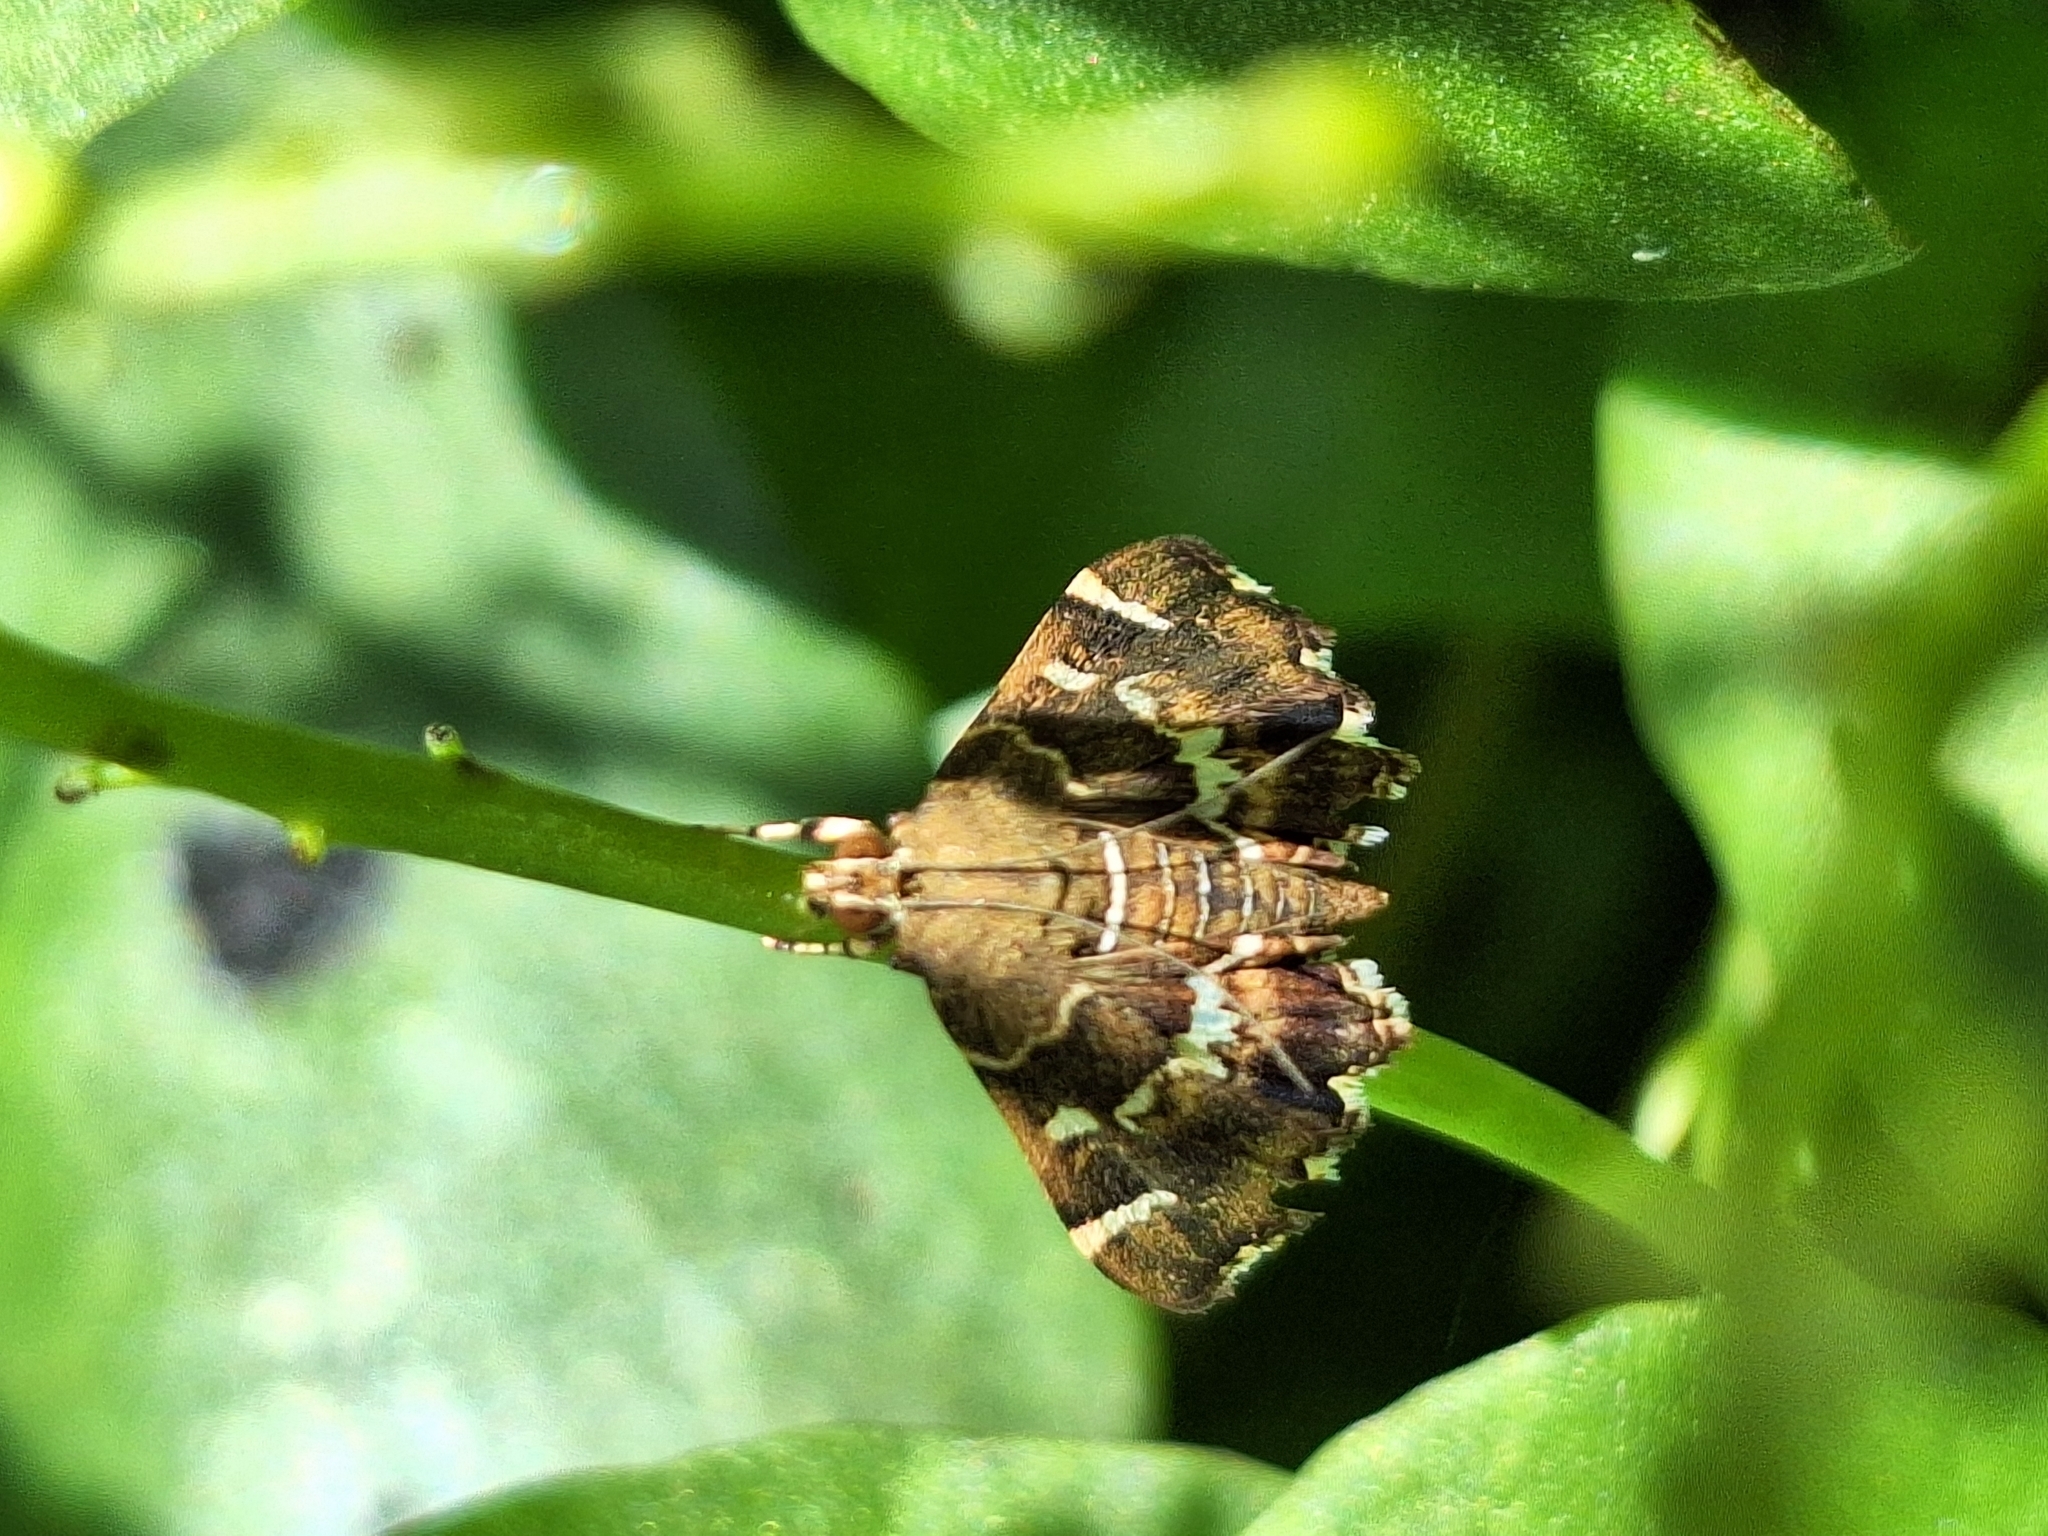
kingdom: Animalia
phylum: Arthropoda
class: Insecta
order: Lepidoptera
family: Crambidae
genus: Hymenia
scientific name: Hymenia perspectalis
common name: Spotted beet webworm
